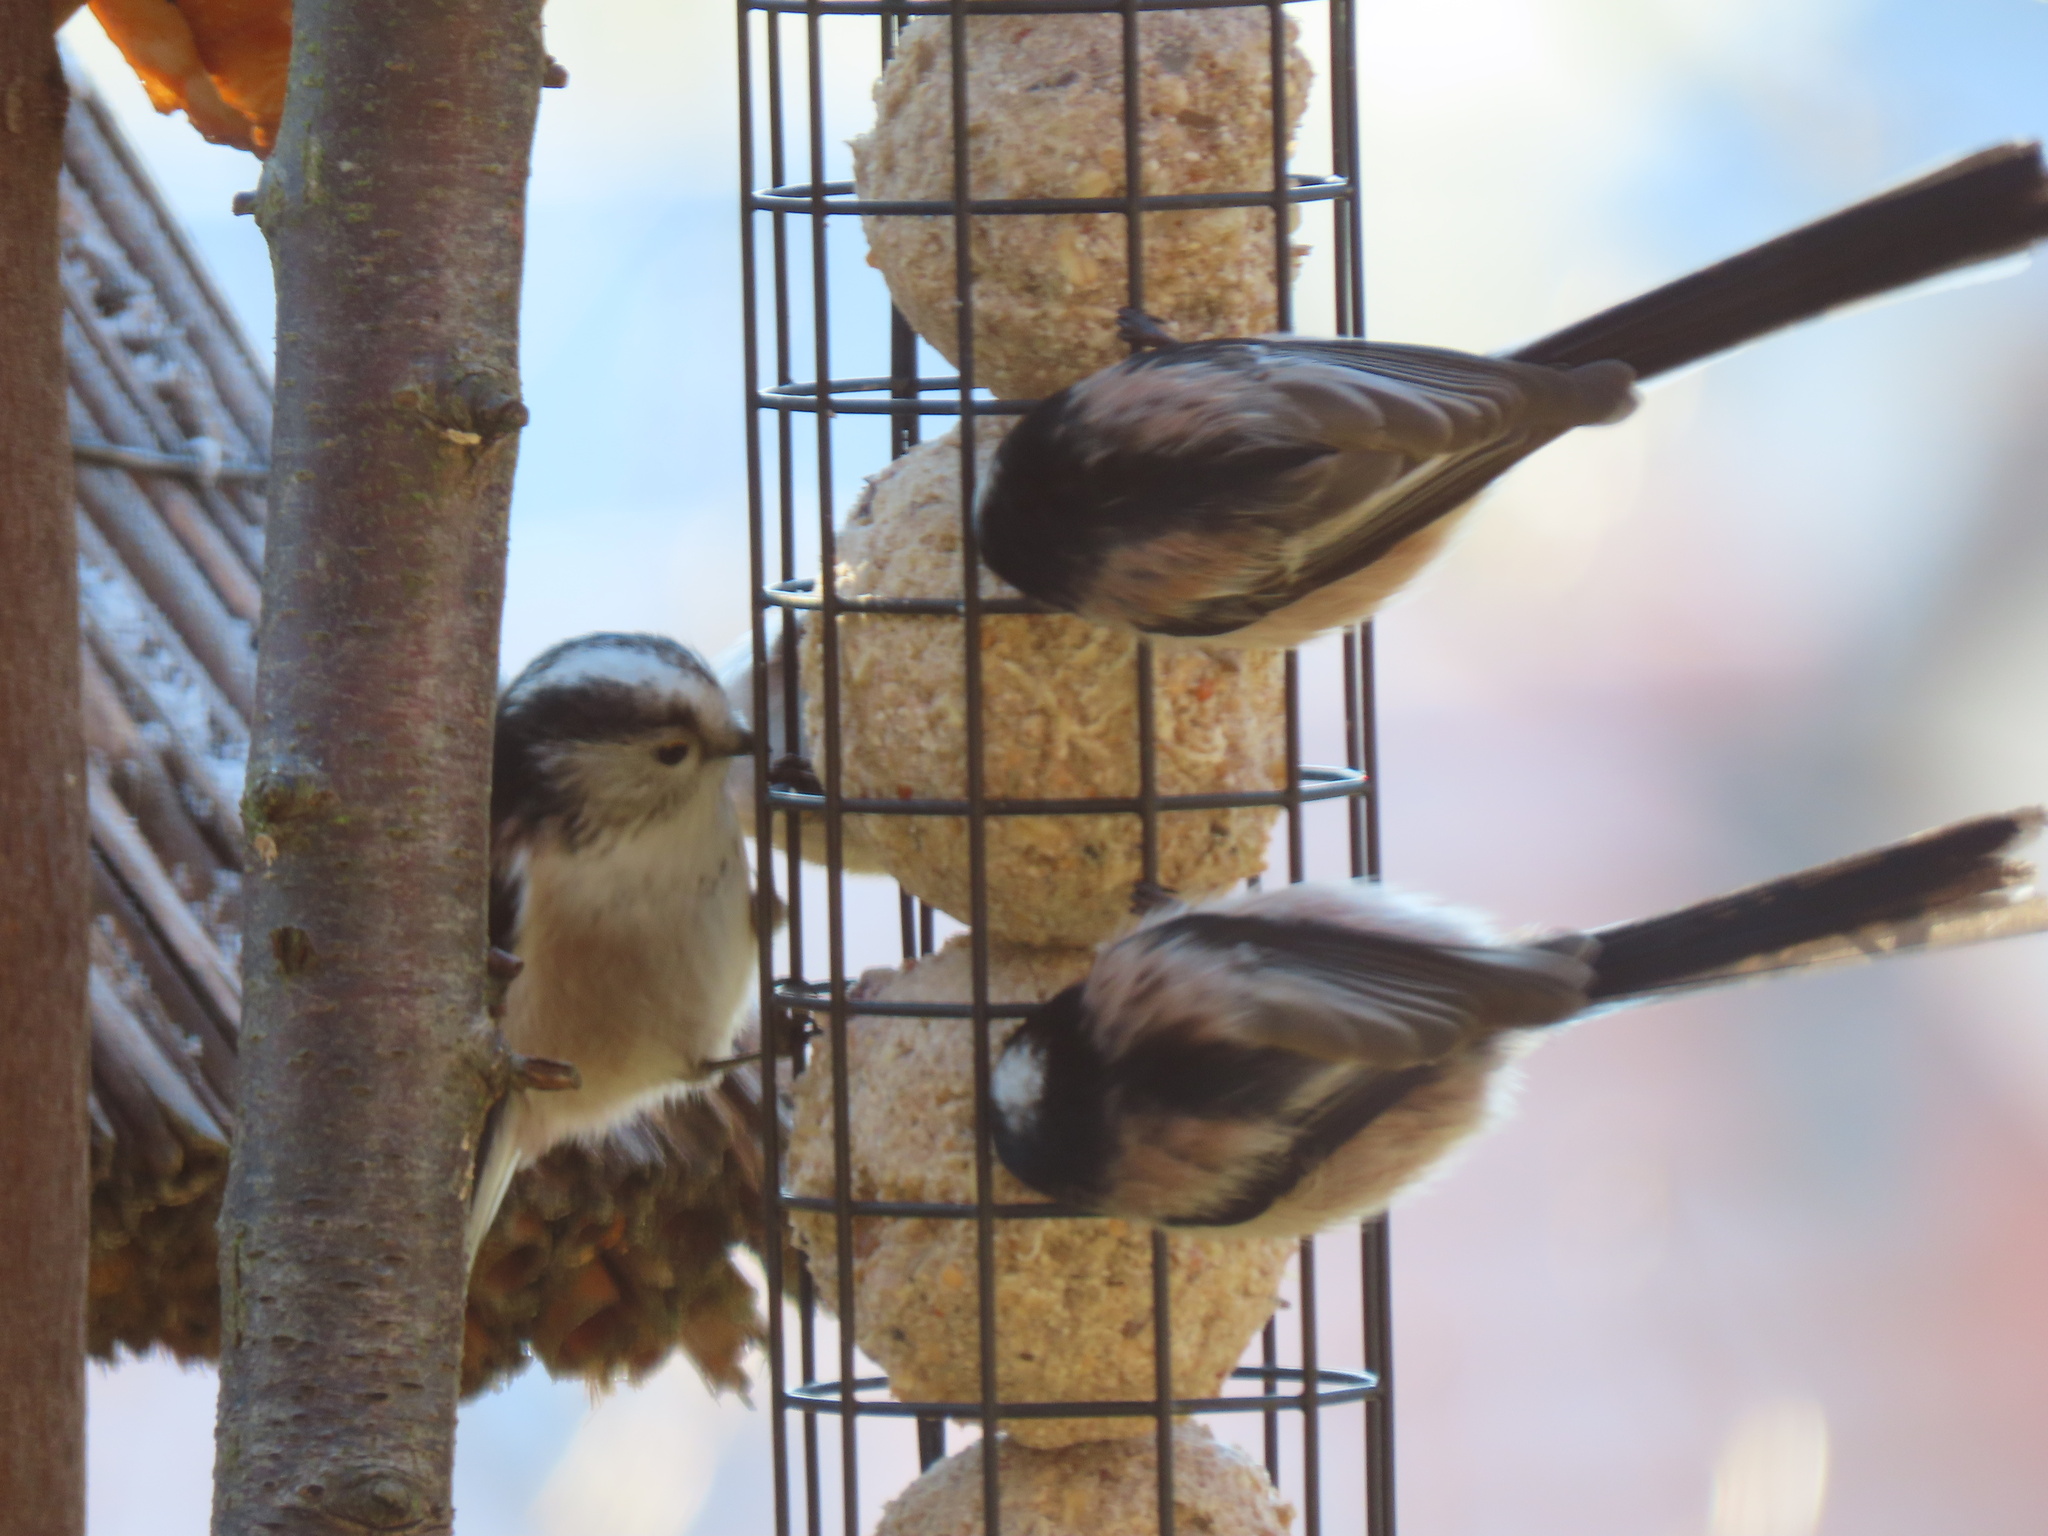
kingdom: Animalia
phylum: Chordata
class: Aves
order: Passeriformes
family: Aegithalidae
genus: Aegithalos
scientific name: Aegithalos caudatus
